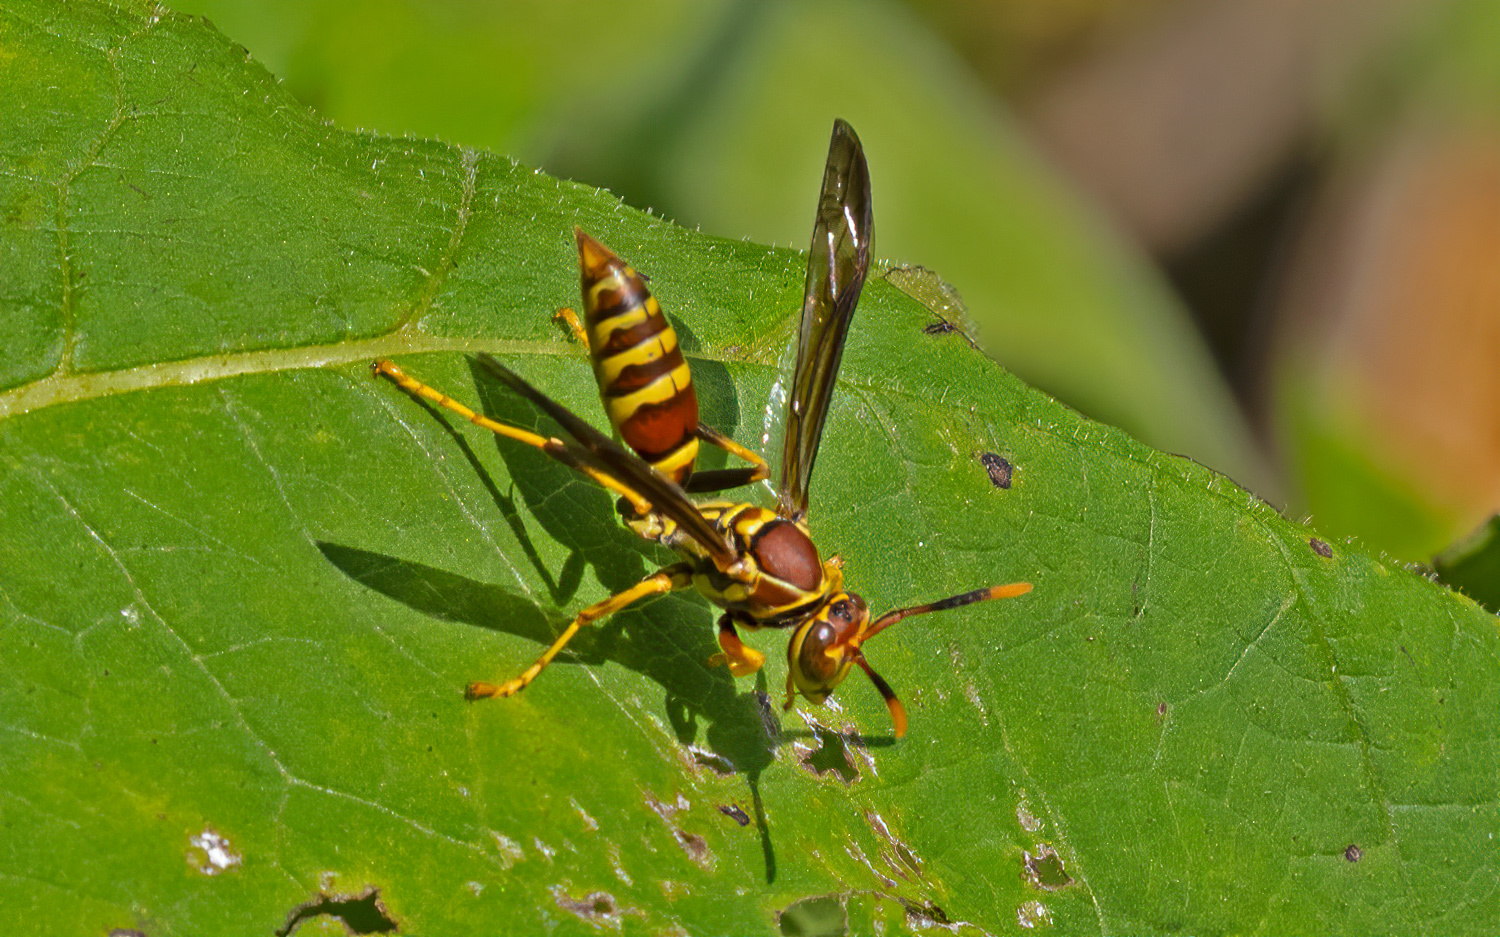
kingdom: Animalia
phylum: Arthropoda
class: Insecta
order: Hymenoptera
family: Eumenidae
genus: Polistes
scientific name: Polistes exclamans
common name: Paper wasp
